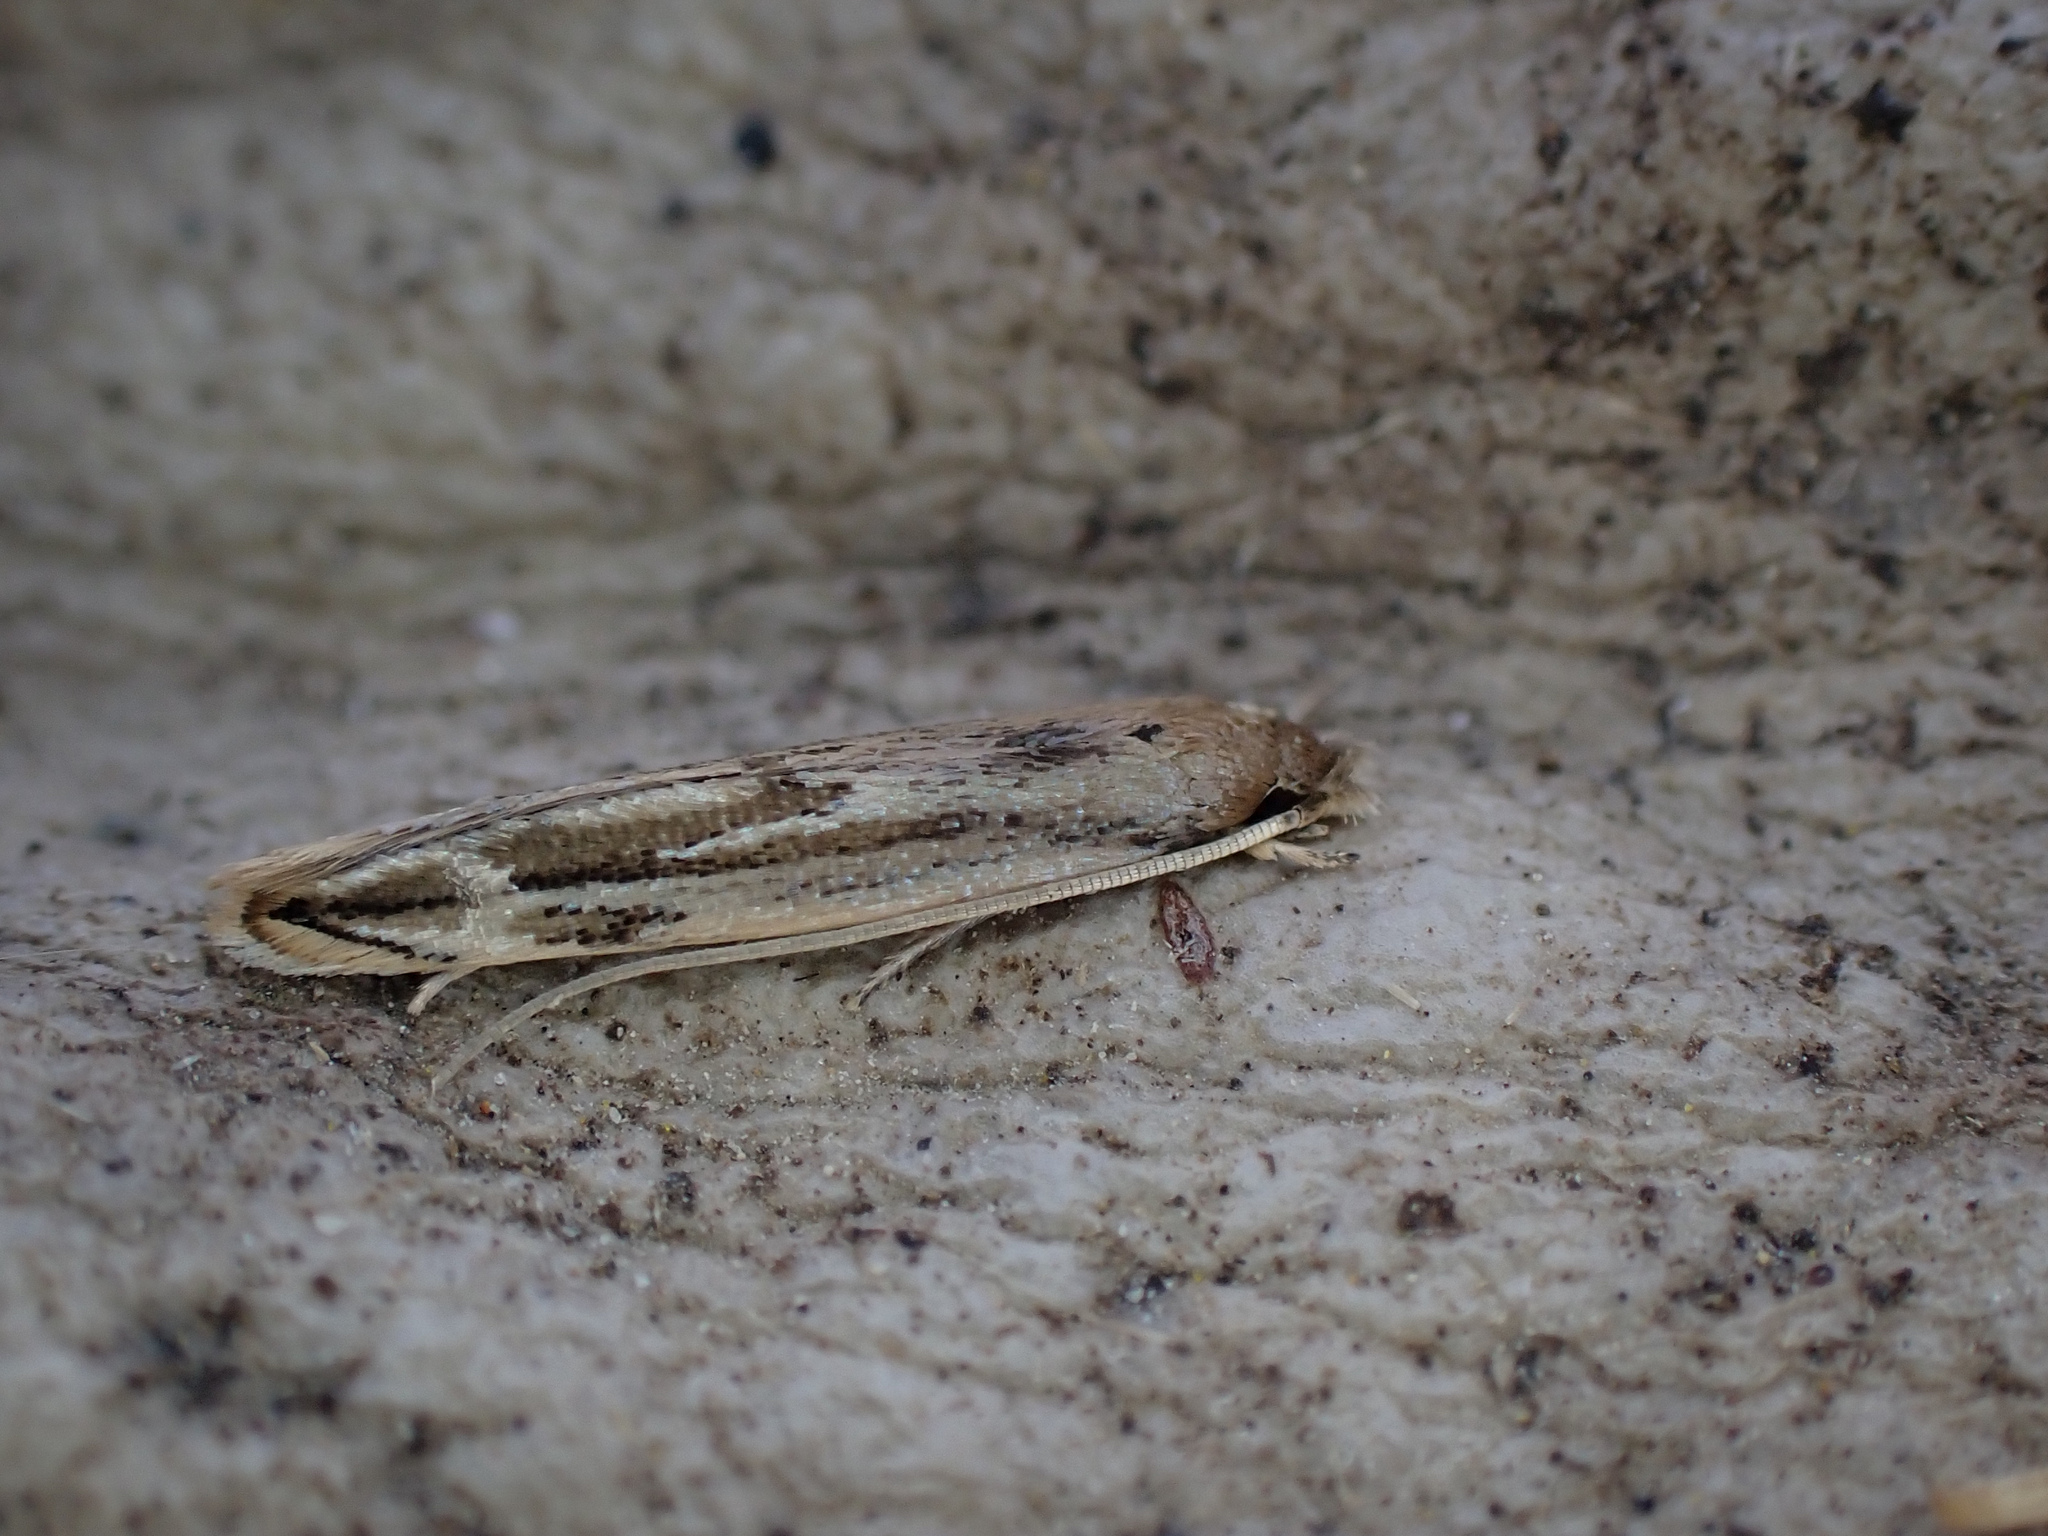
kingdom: Animalia
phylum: Arthropoda
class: Insecta
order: Lepidoptera
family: Tineidae
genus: Amphixystis
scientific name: Amphixystis hapsimacha
